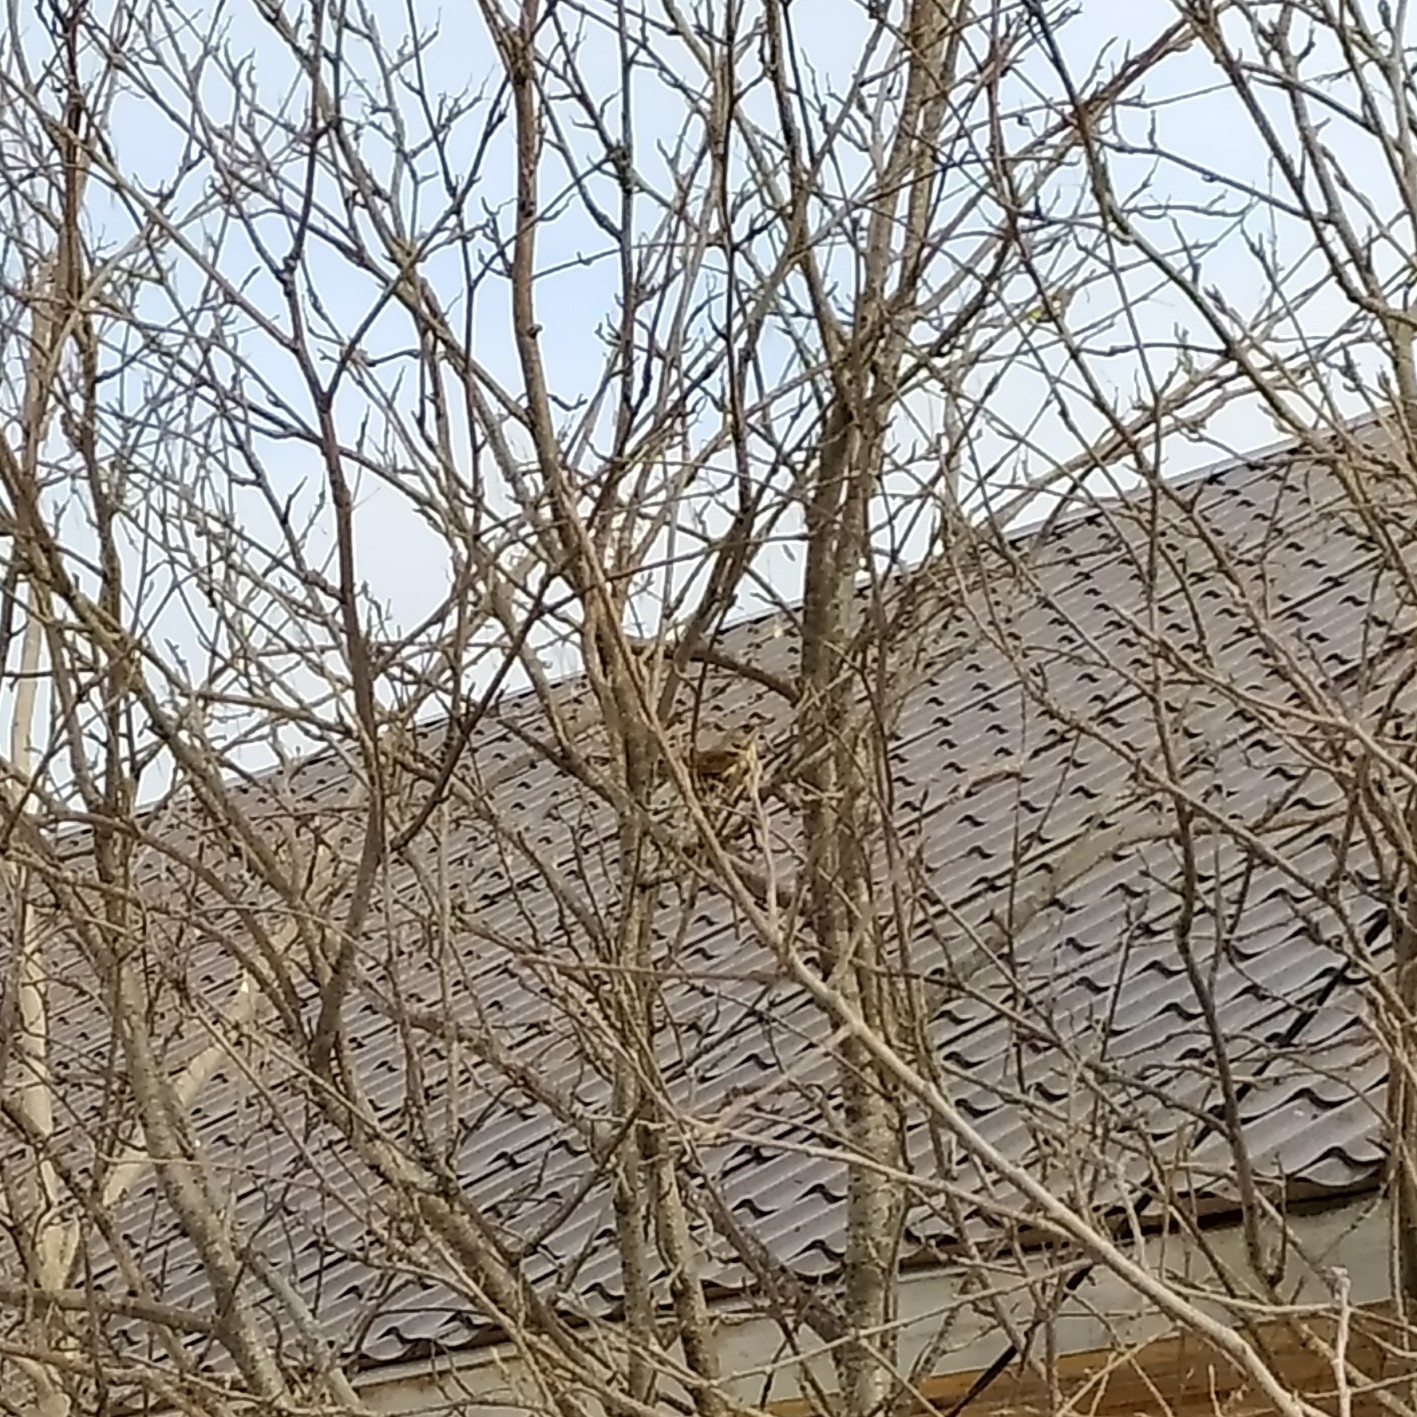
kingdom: Animalia
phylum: Chordata
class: Aves
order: Passeriformes
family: Turdidae
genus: Turdus
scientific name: Turdus pilaris
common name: Fieldfare
